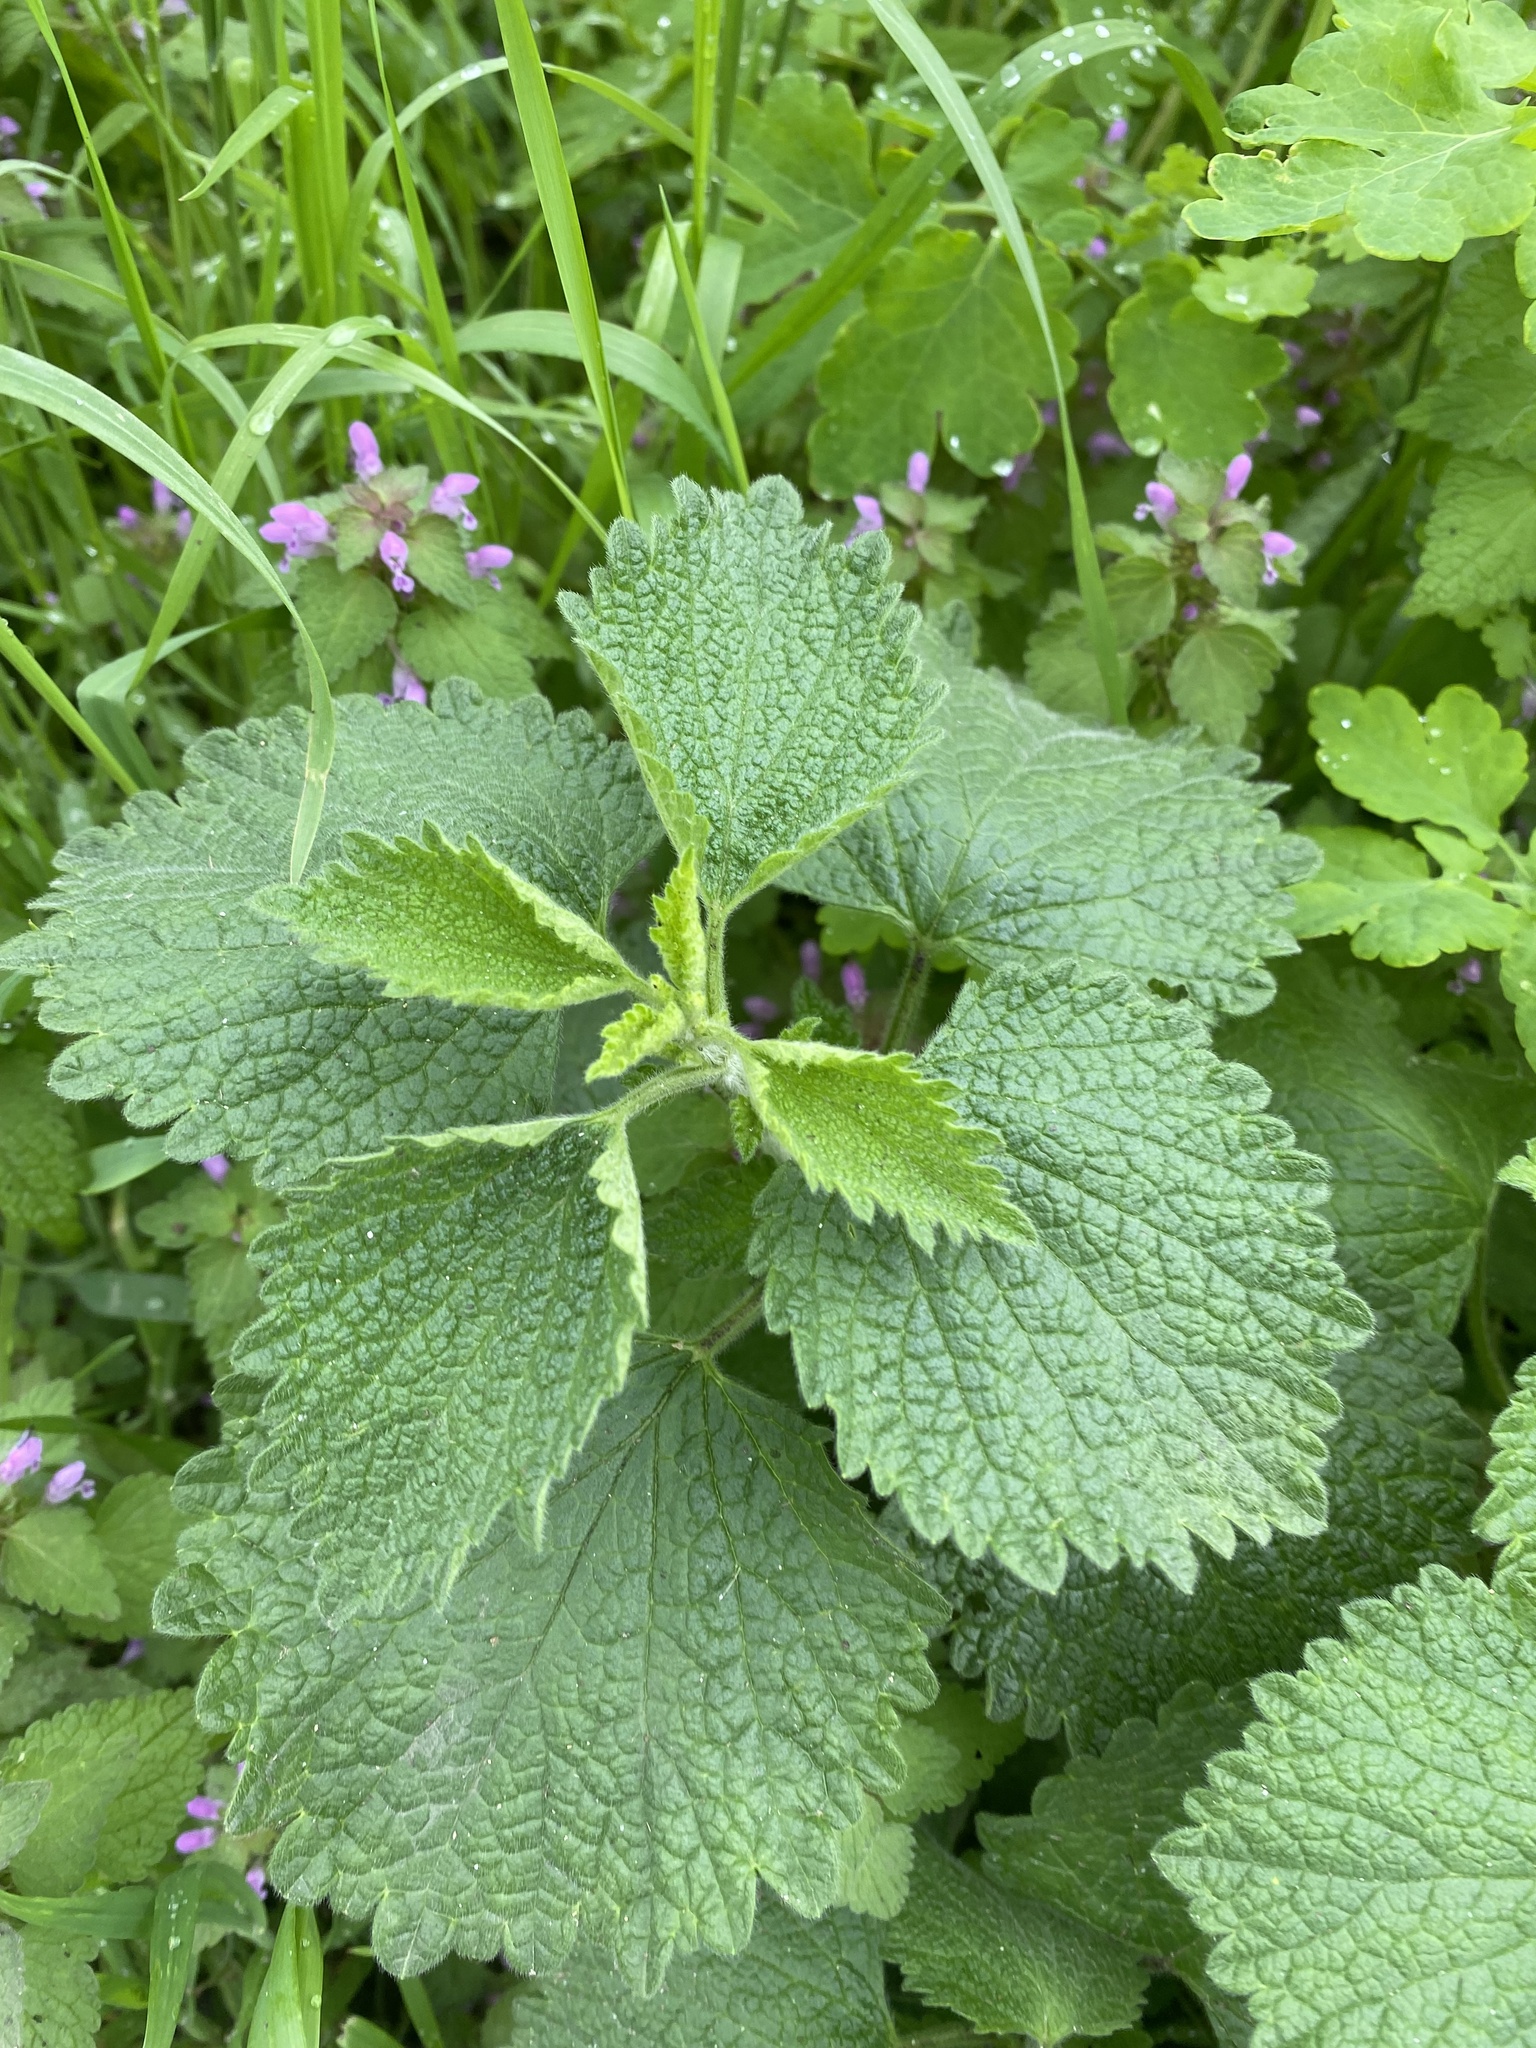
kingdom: Plantae
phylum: Tracheophyta
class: Magnoliopsida
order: Lamiales
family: Lamiaceae
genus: Ballota
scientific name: Ballota nigra
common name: Black horehound
